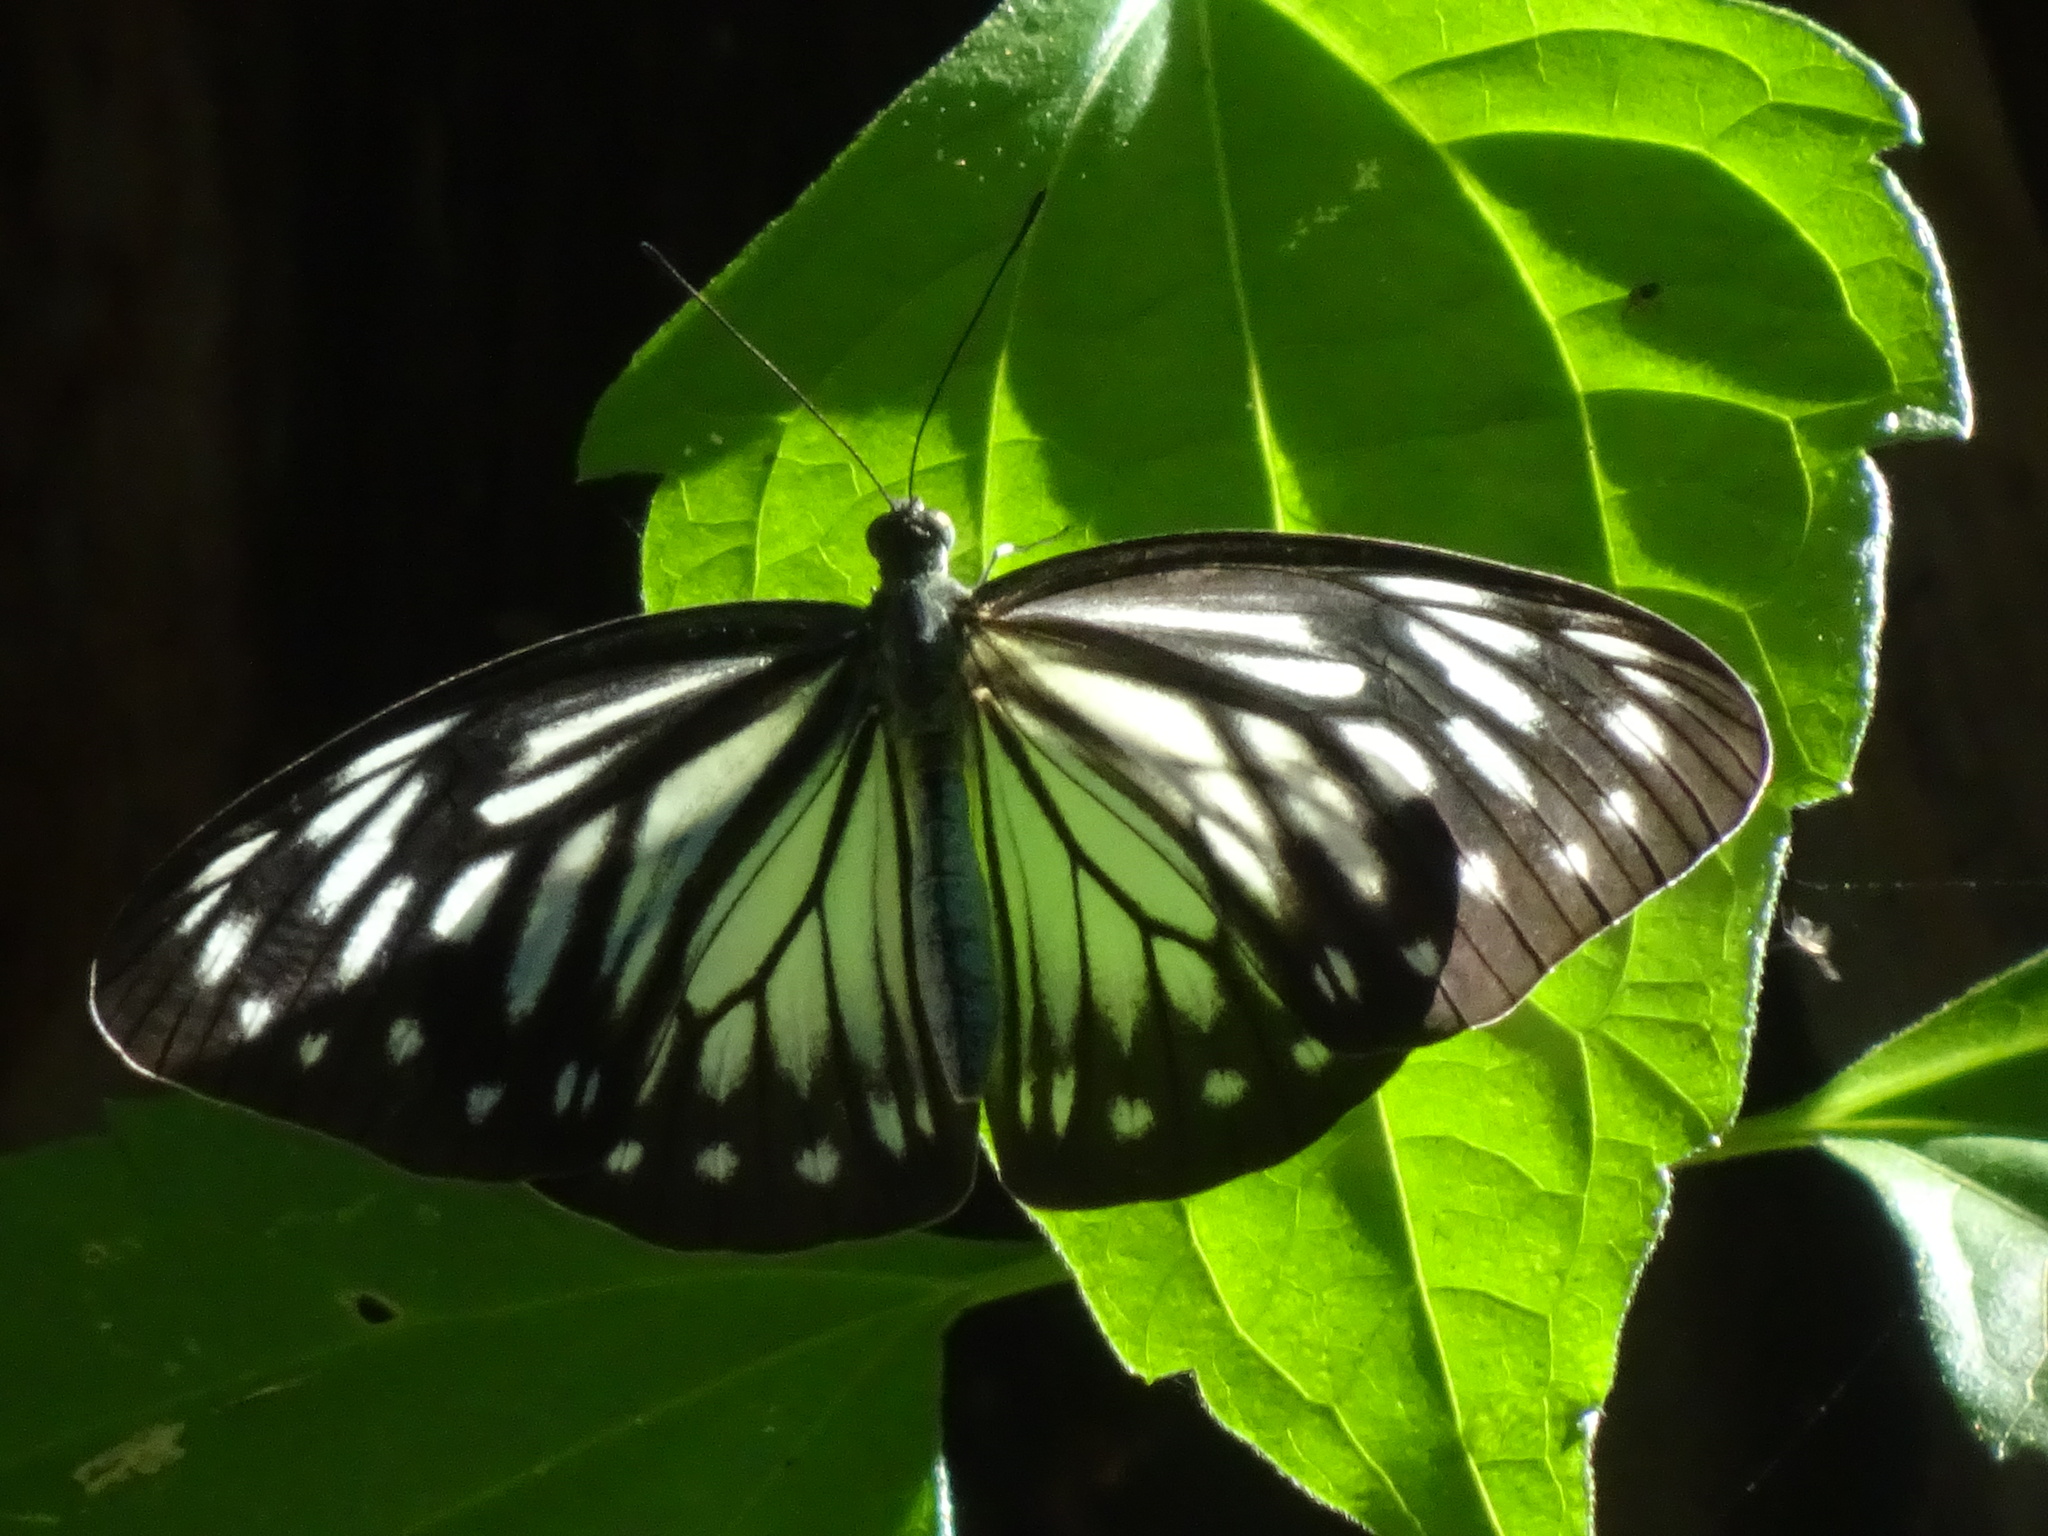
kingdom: Animalia
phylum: Arthropoda
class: Insecta
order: Lepidoptera
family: Pieridae
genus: Pareronia
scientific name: Pareronia valeria
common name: Common wanderer?
